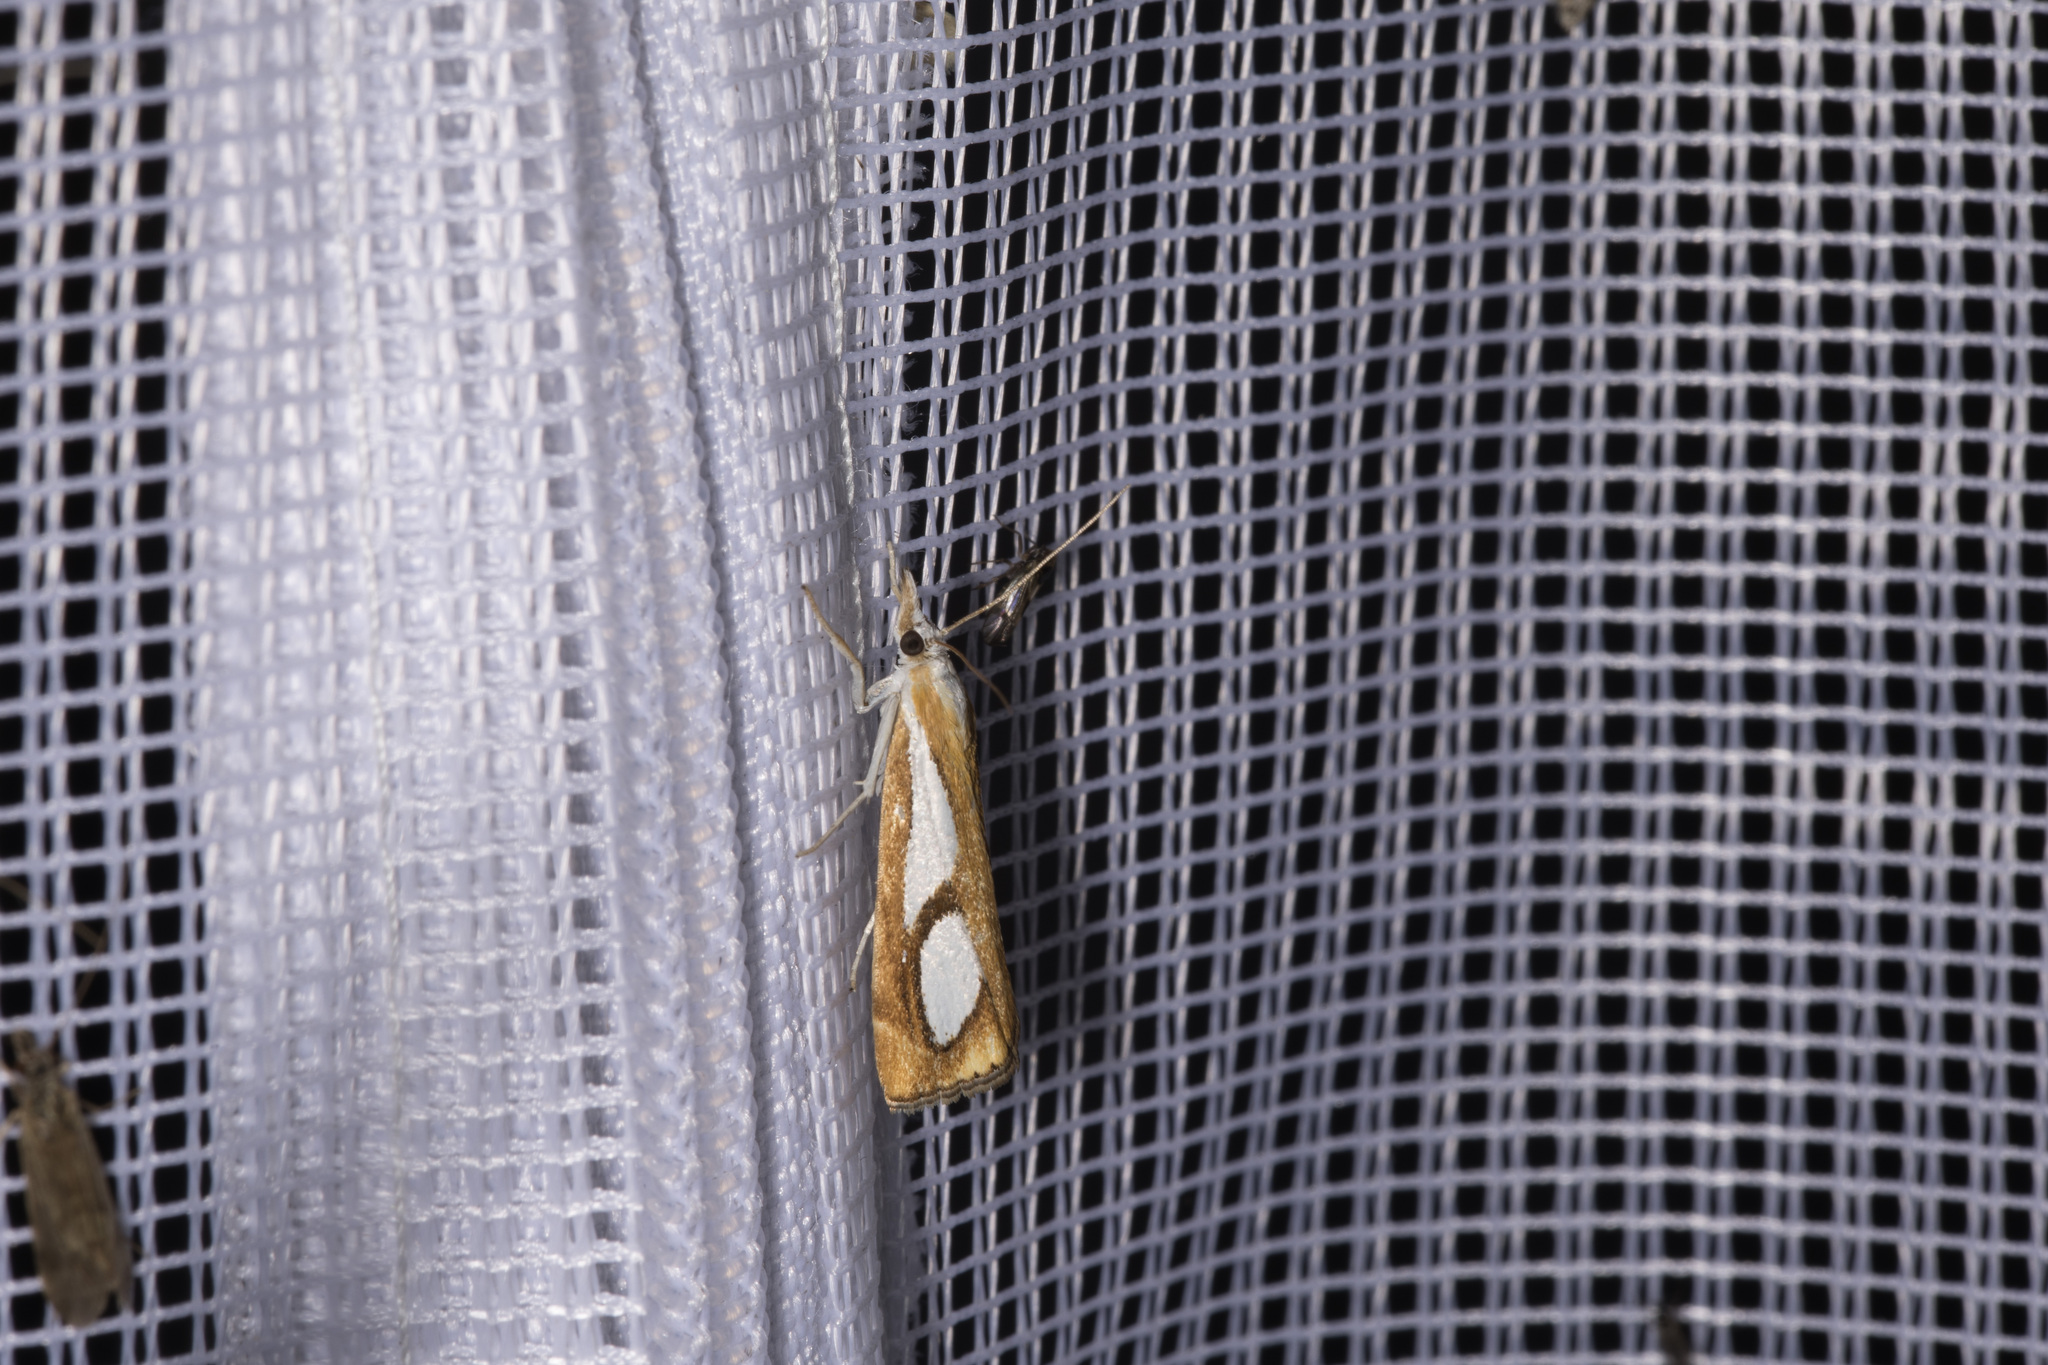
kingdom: Animalia
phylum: Arthropoda
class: Insecta
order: Lepidoptera
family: Crambidae
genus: Catoptria
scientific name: Catoptria pinella
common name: Pearl grass-veneer
